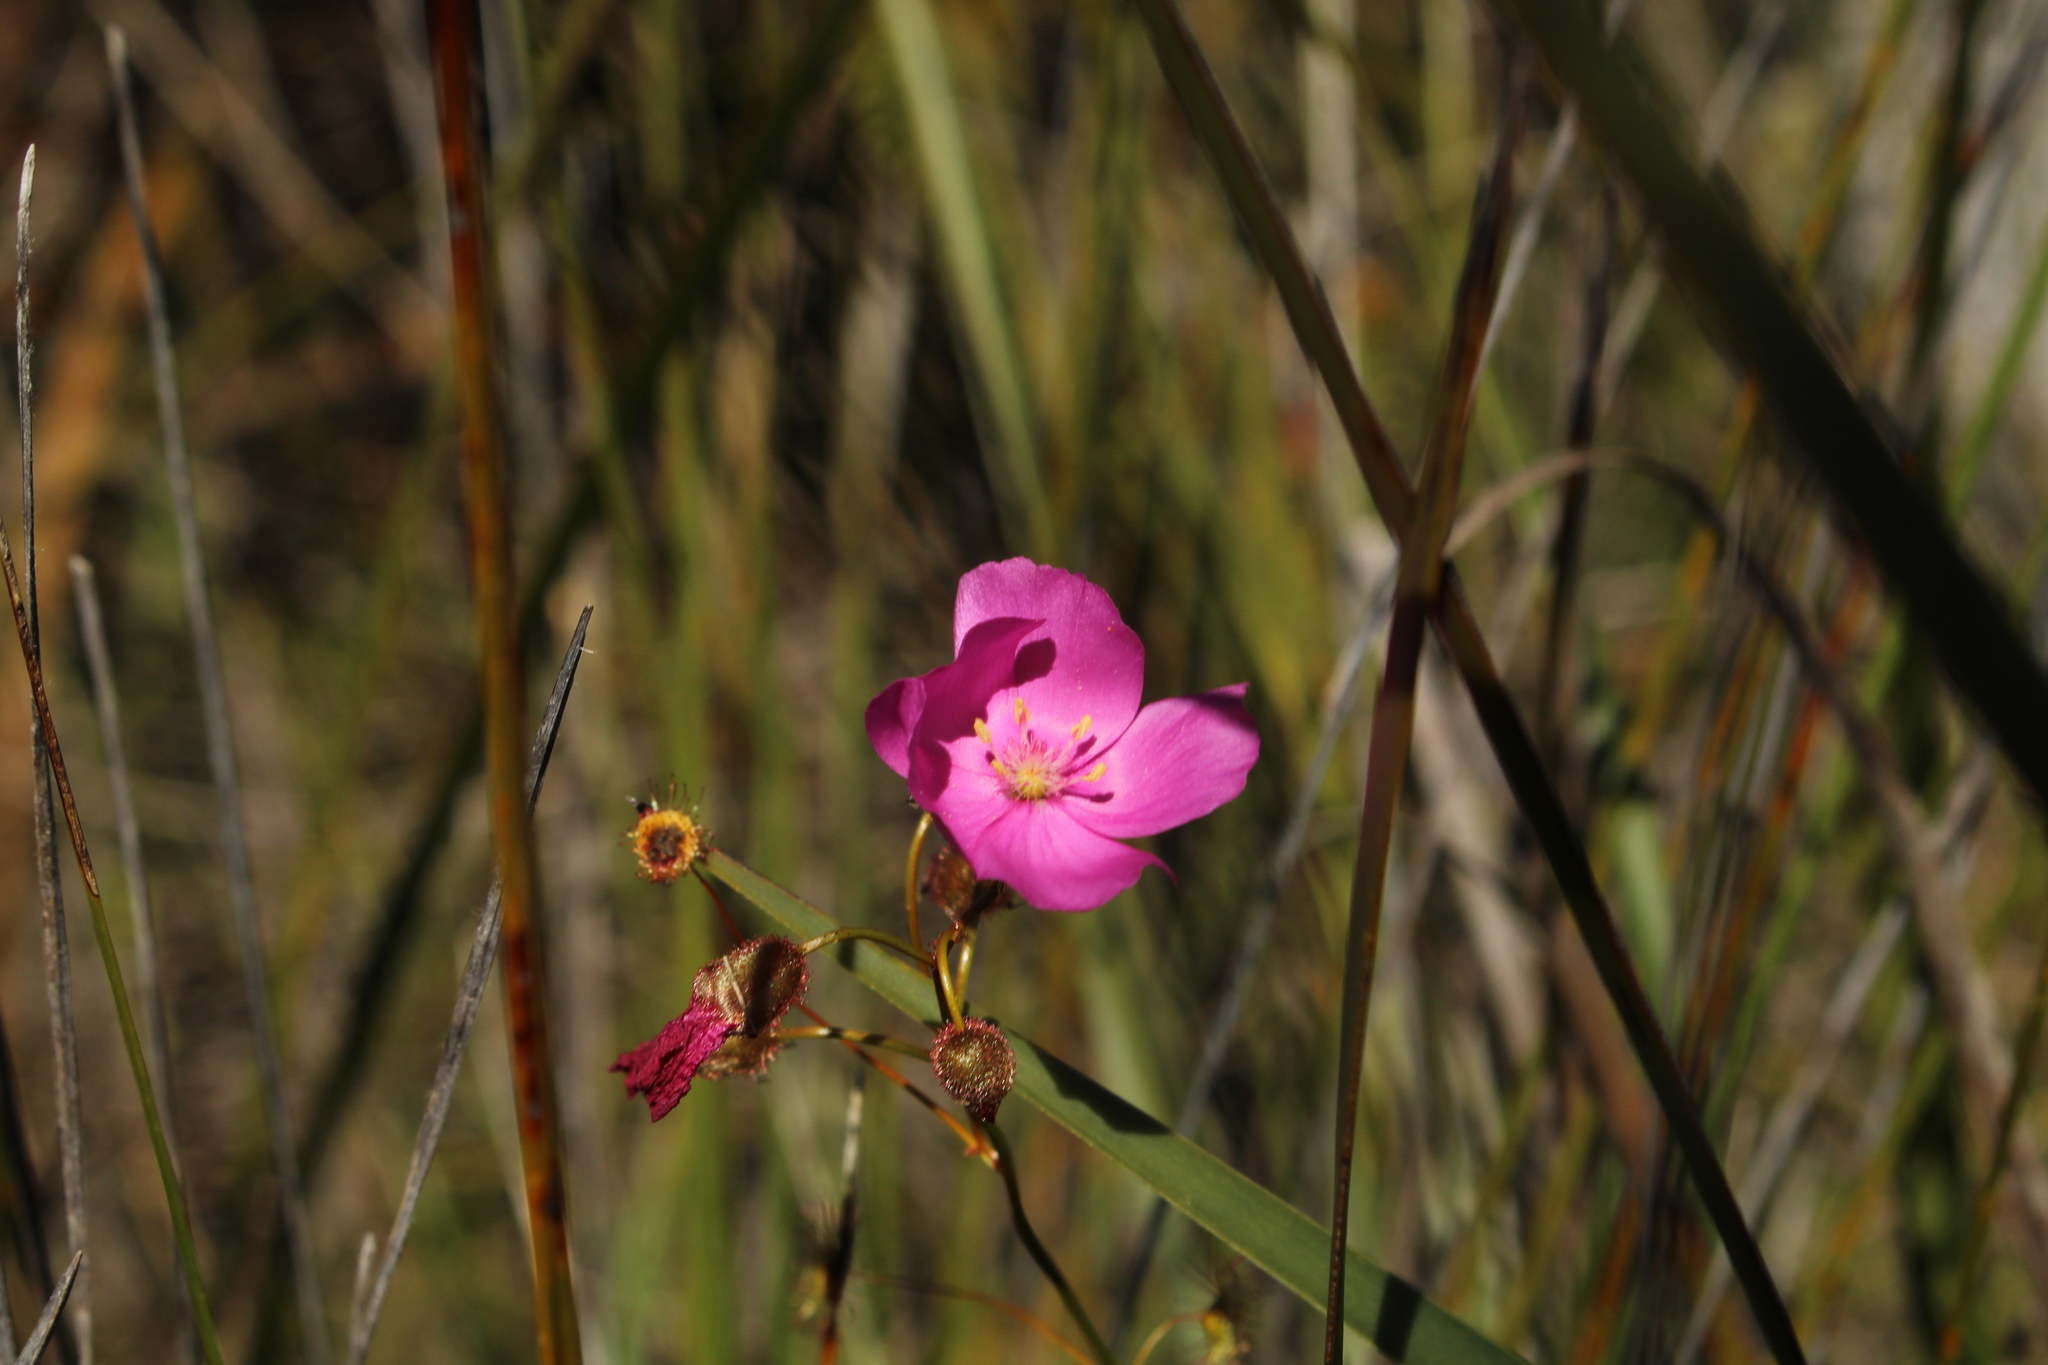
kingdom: Plantae
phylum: Tracheophyta
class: Magnoliopsida
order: Caryophyllales
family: Droseraceae
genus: Drosera
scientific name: Drosera
